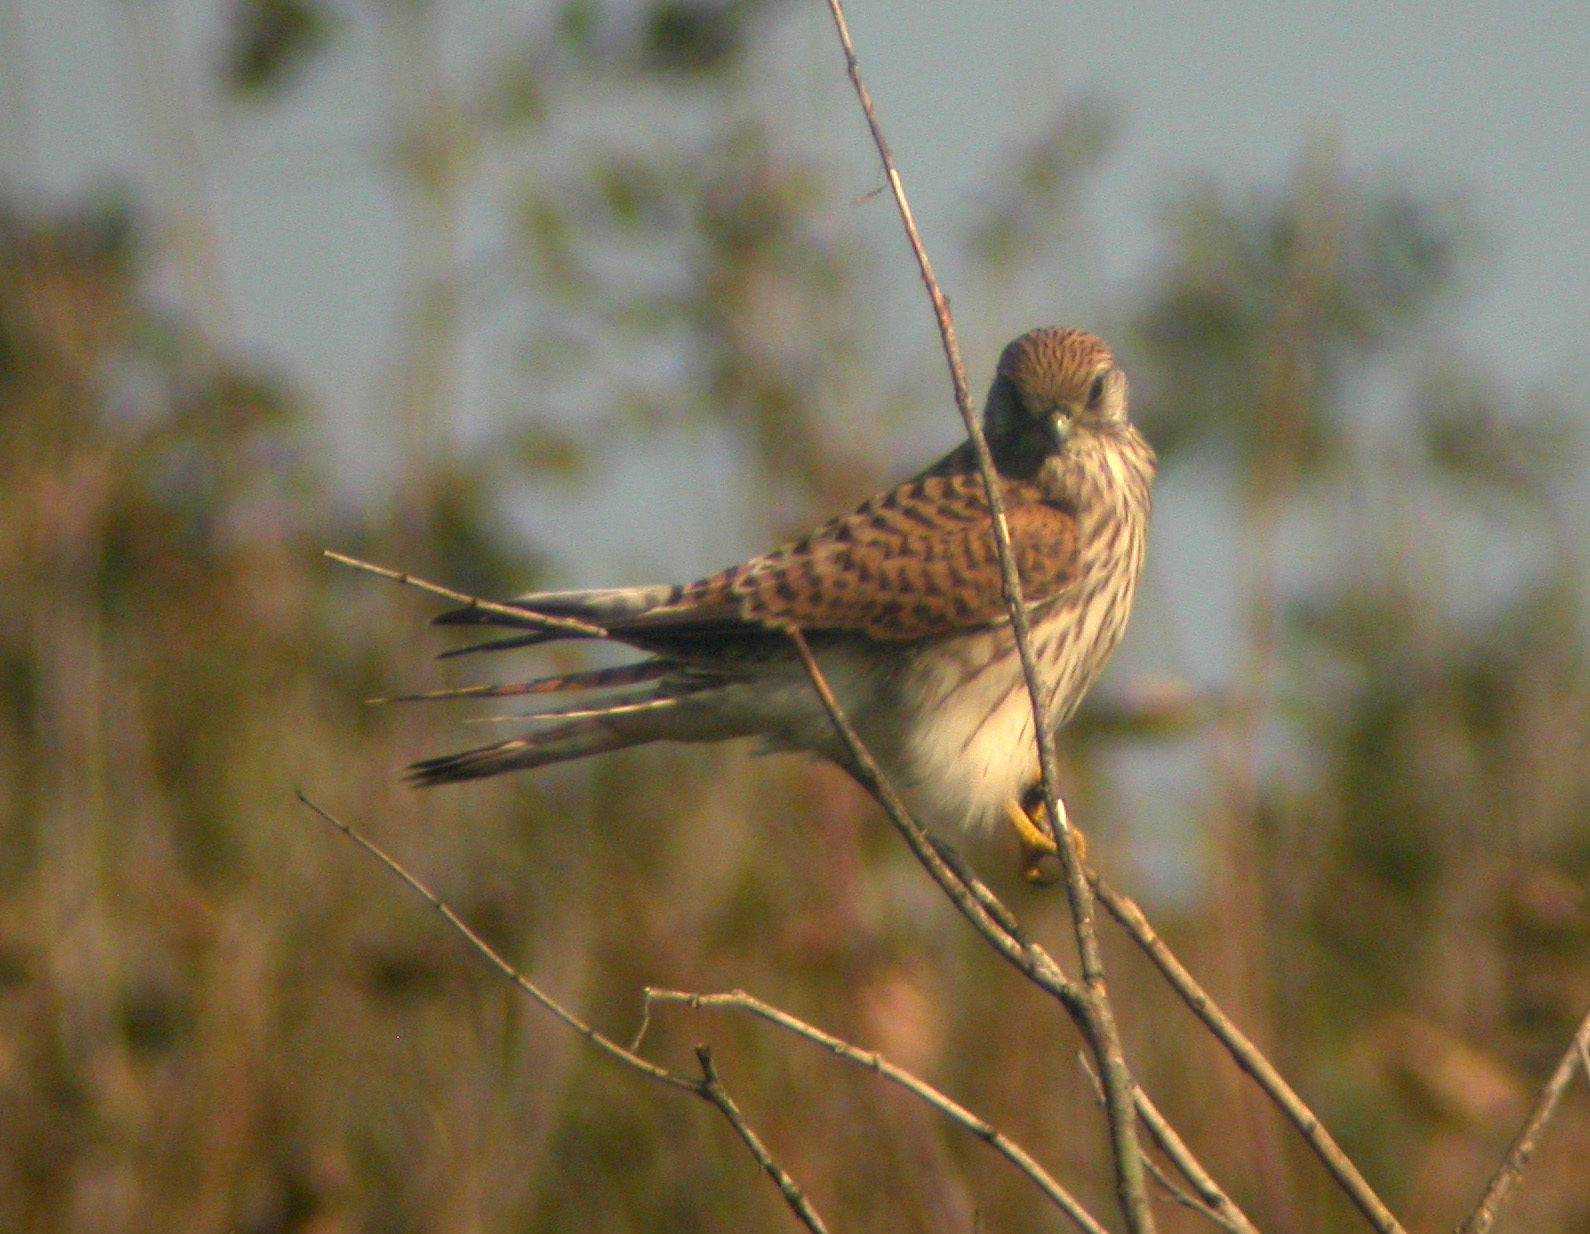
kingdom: Animalia
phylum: Chordata
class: Aves
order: Falconiformes
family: Falconidae
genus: Falco
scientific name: Falco tinnunculus
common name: Common kestrel
